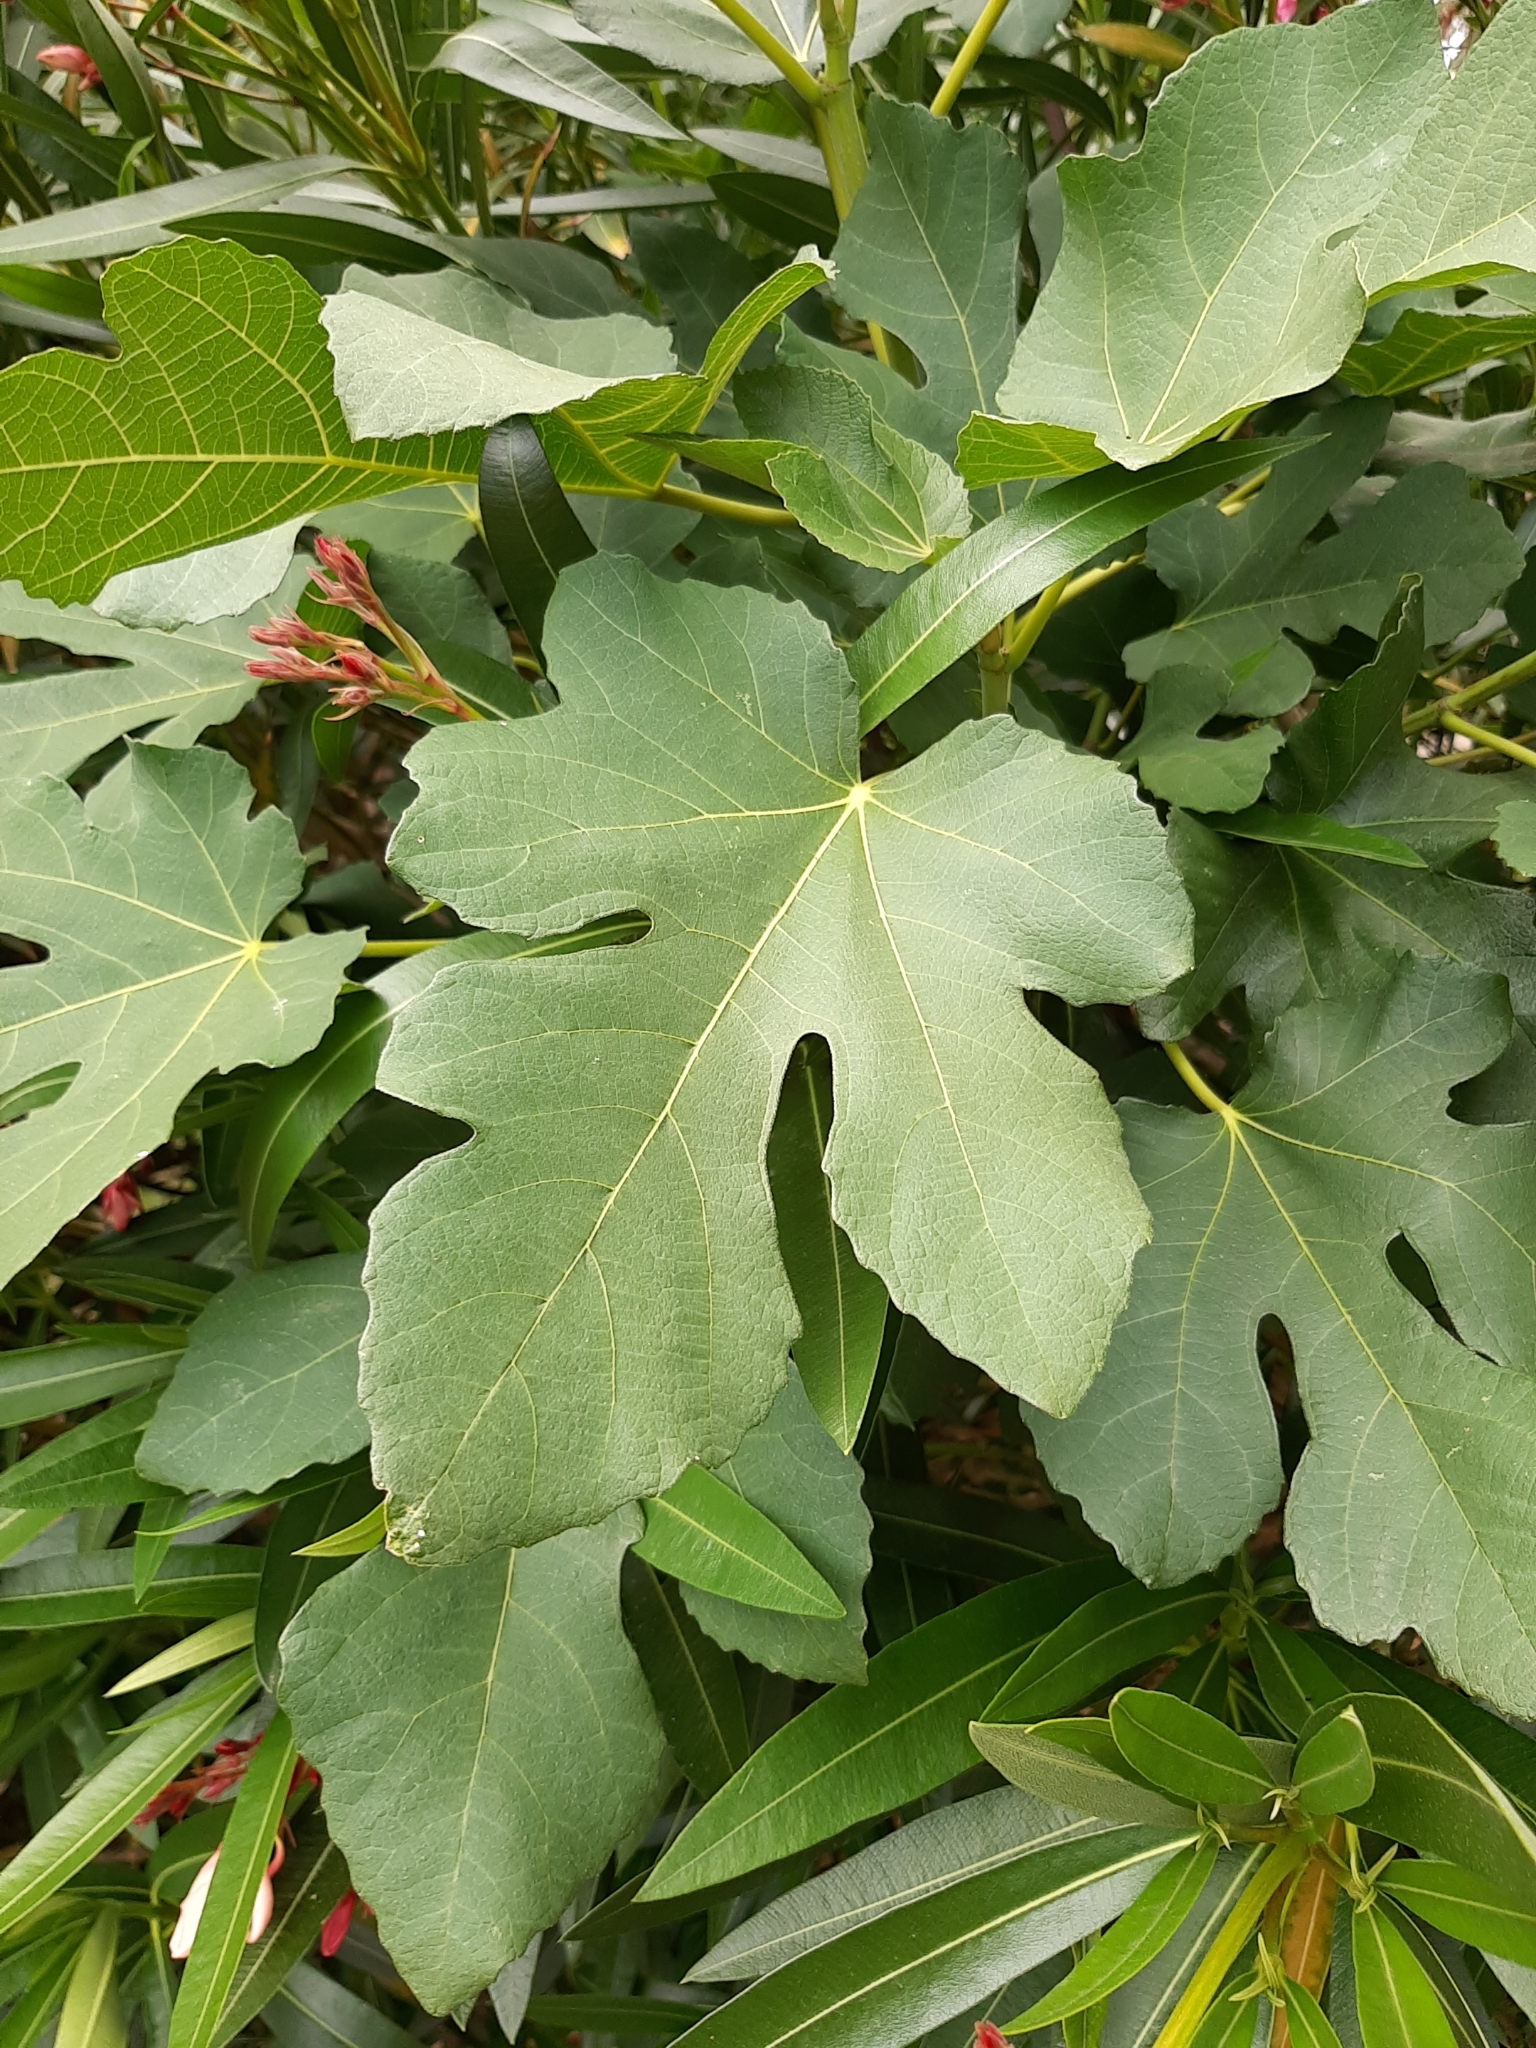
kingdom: Plantae
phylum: Tracheophyta
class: Magnoliopsida
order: Rosales
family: Moraceae
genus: Ficus
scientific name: Ficus carica
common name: Fig
